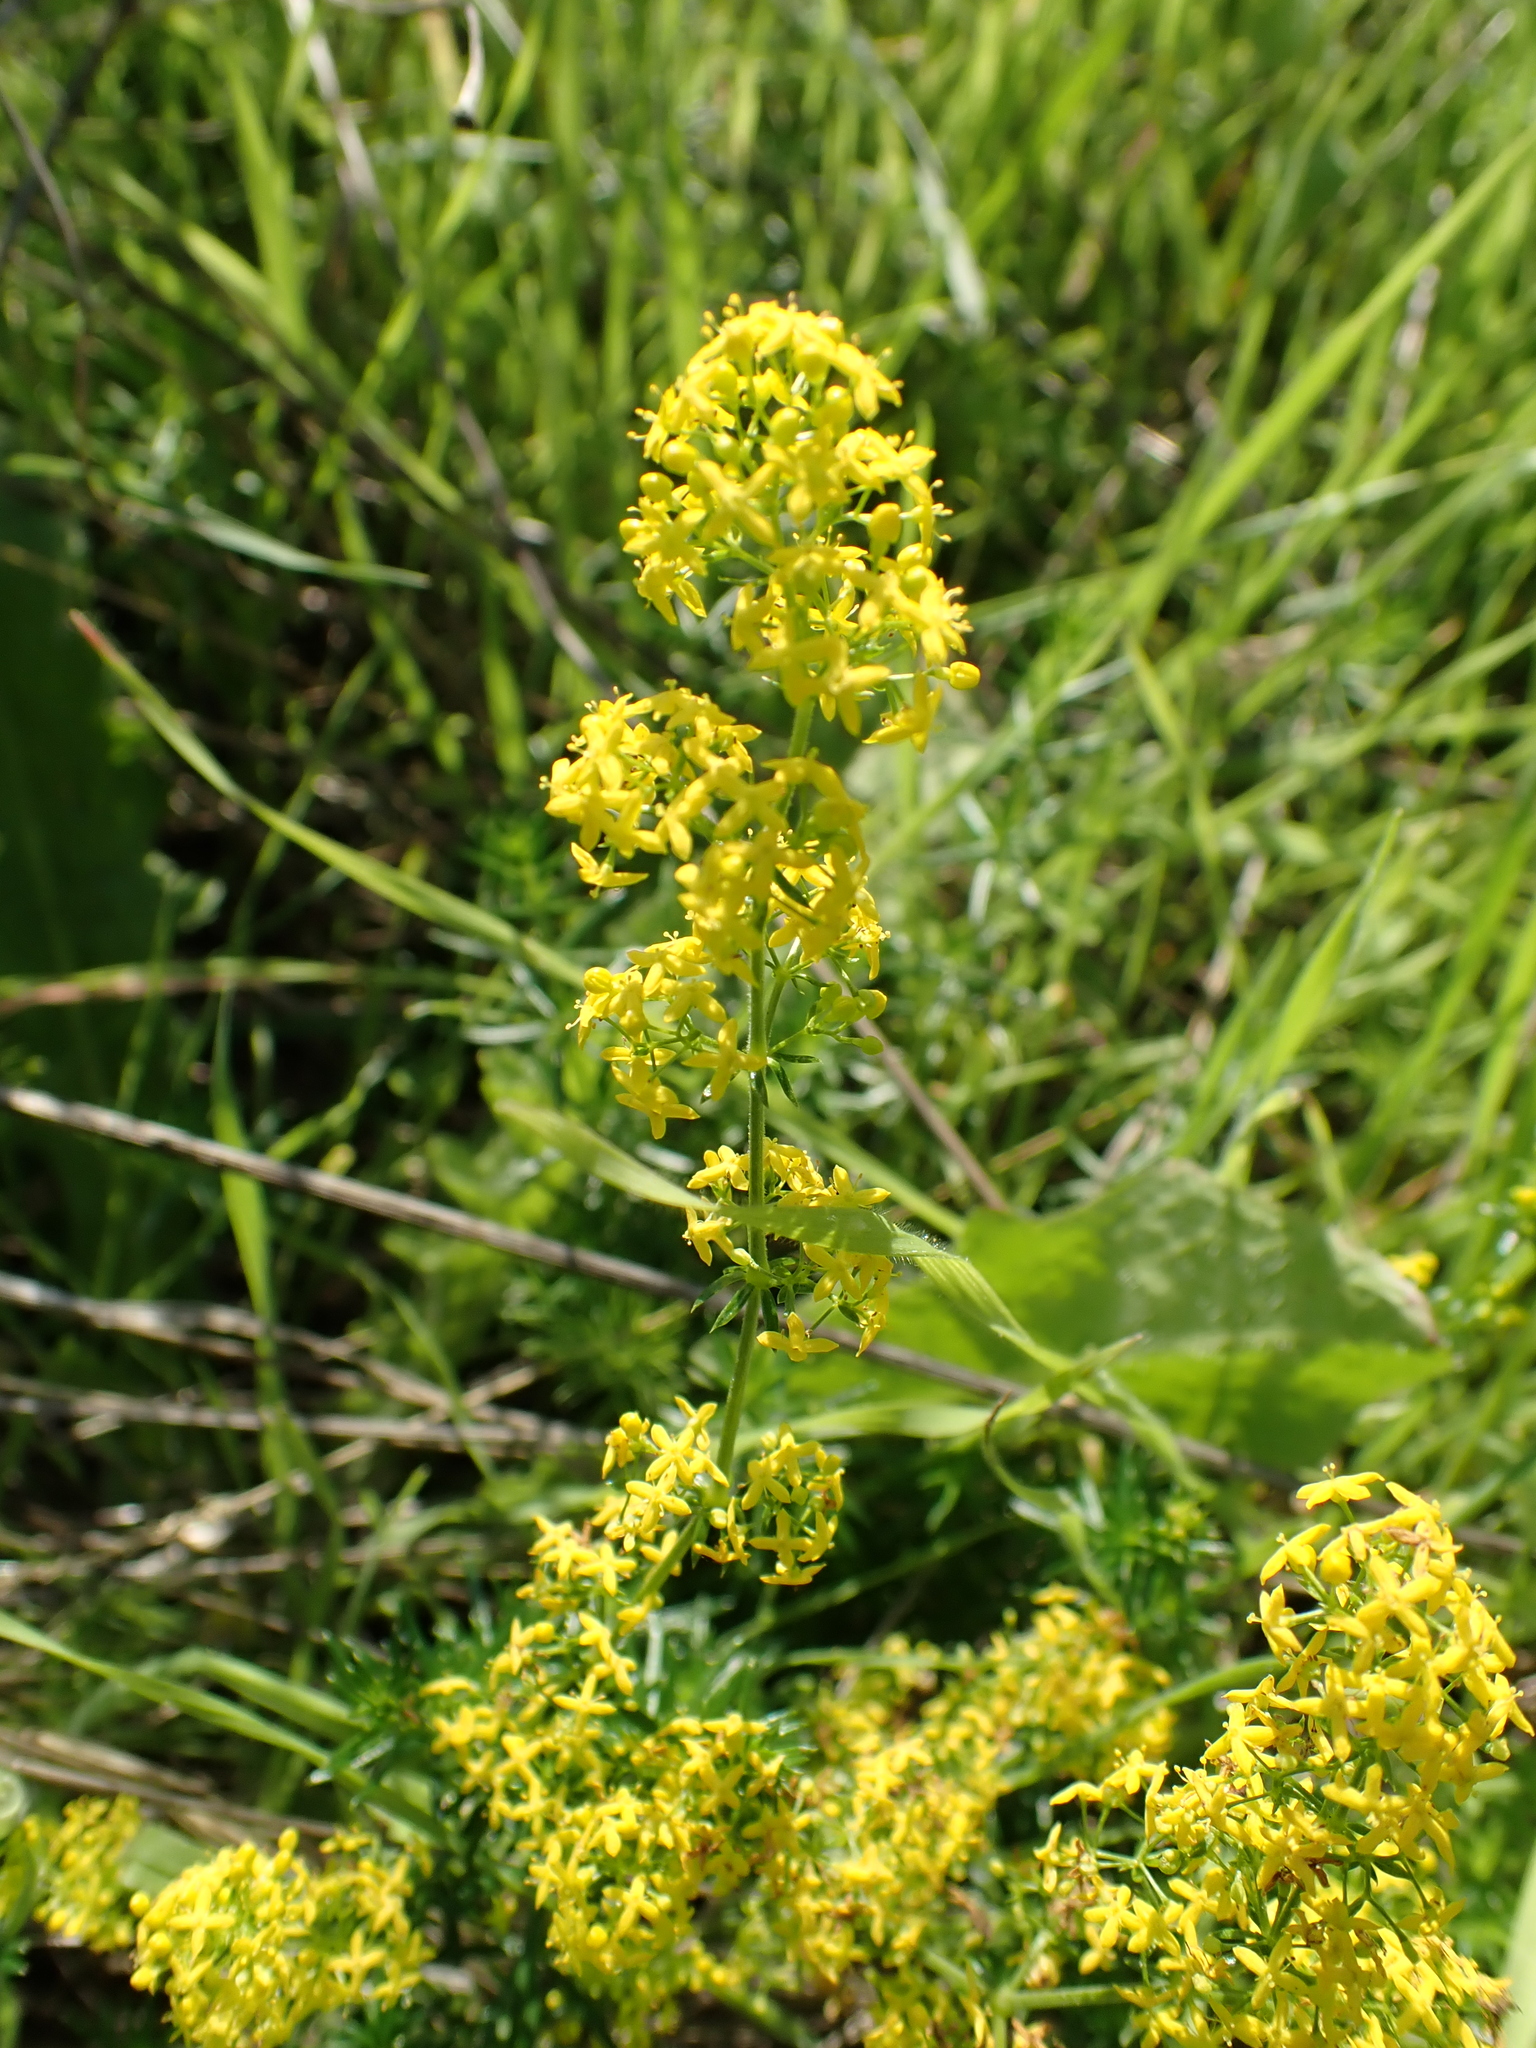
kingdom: Plantae
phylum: Tracheophyta
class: Magnoliopsida
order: Gentianales
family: Rubiaceae
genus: Galium
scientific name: Galium verum
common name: Lady's bedstraw
